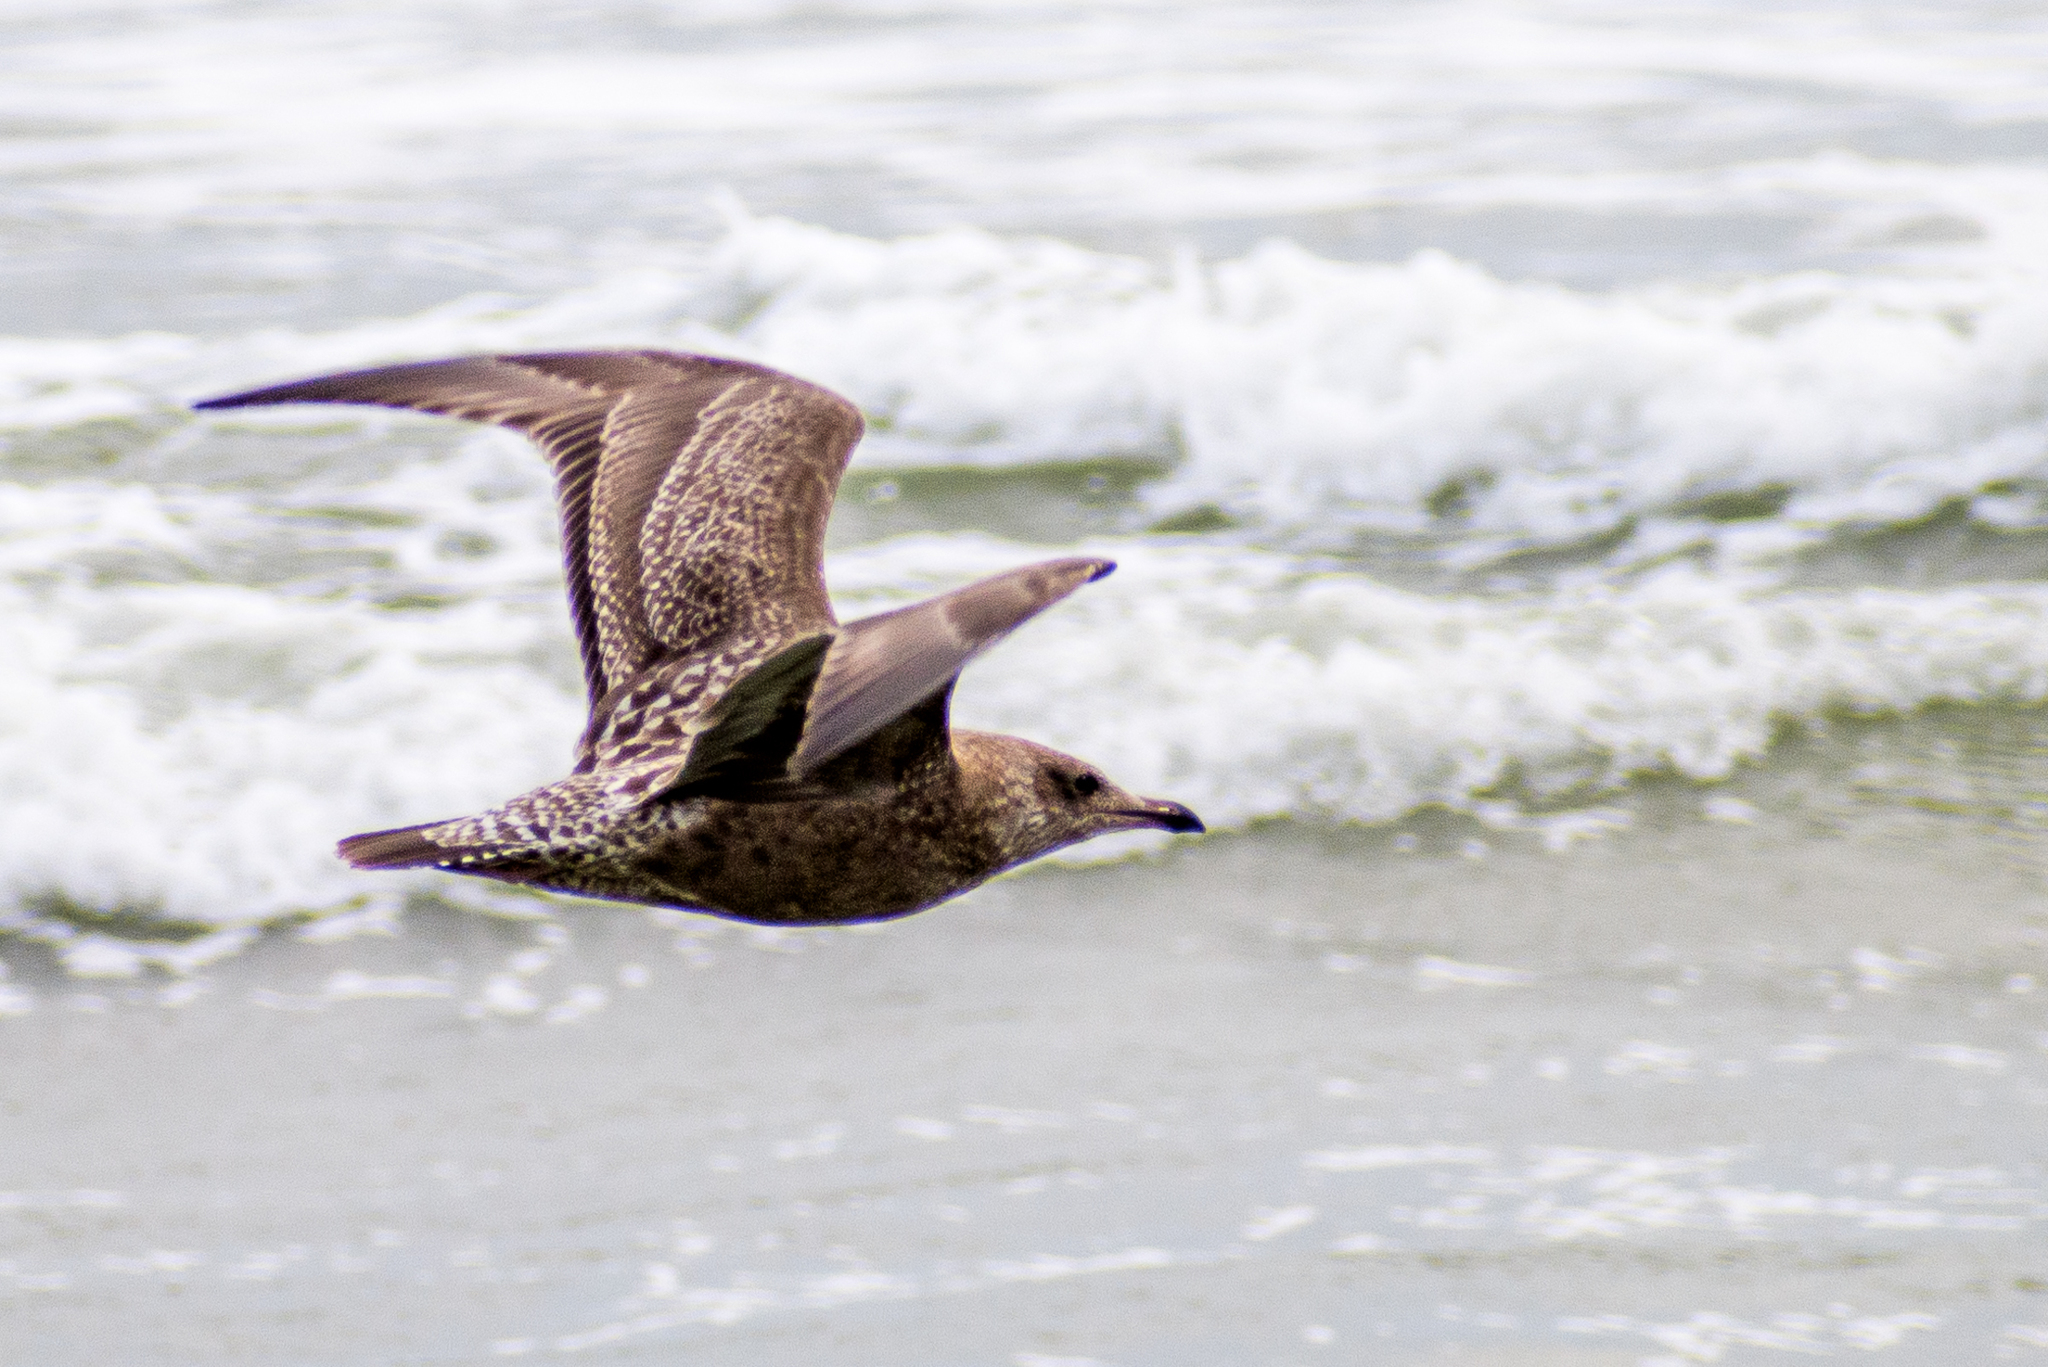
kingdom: Animalia
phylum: Chordata
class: Aves
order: Charadriiformes
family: Laridae
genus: Larus
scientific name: Larus argentatus
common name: Herring gull
